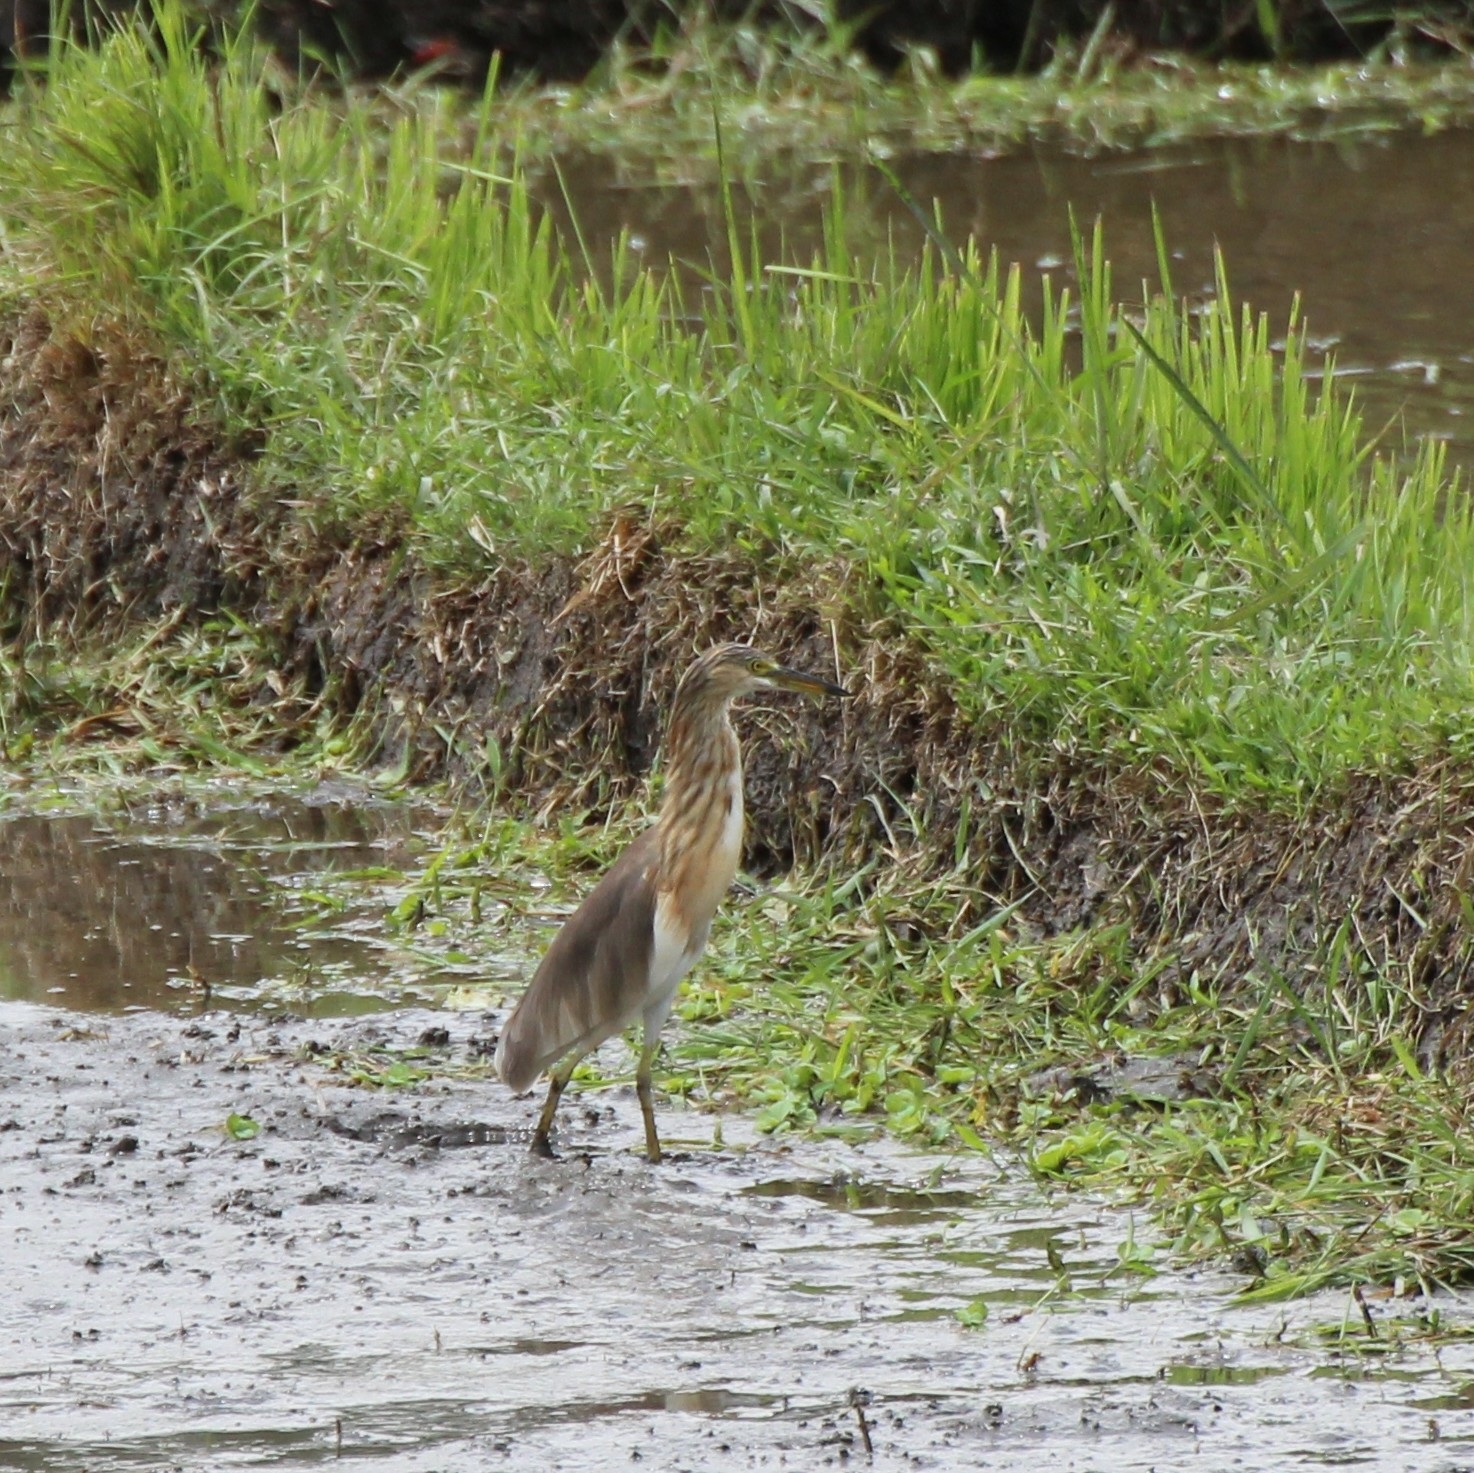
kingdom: Animalia
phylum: Chordata
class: Aves
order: Pelecaniformes
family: Ardeidae
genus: Ardeola
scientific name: Ardeola speciosa
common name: Javan pond heron
